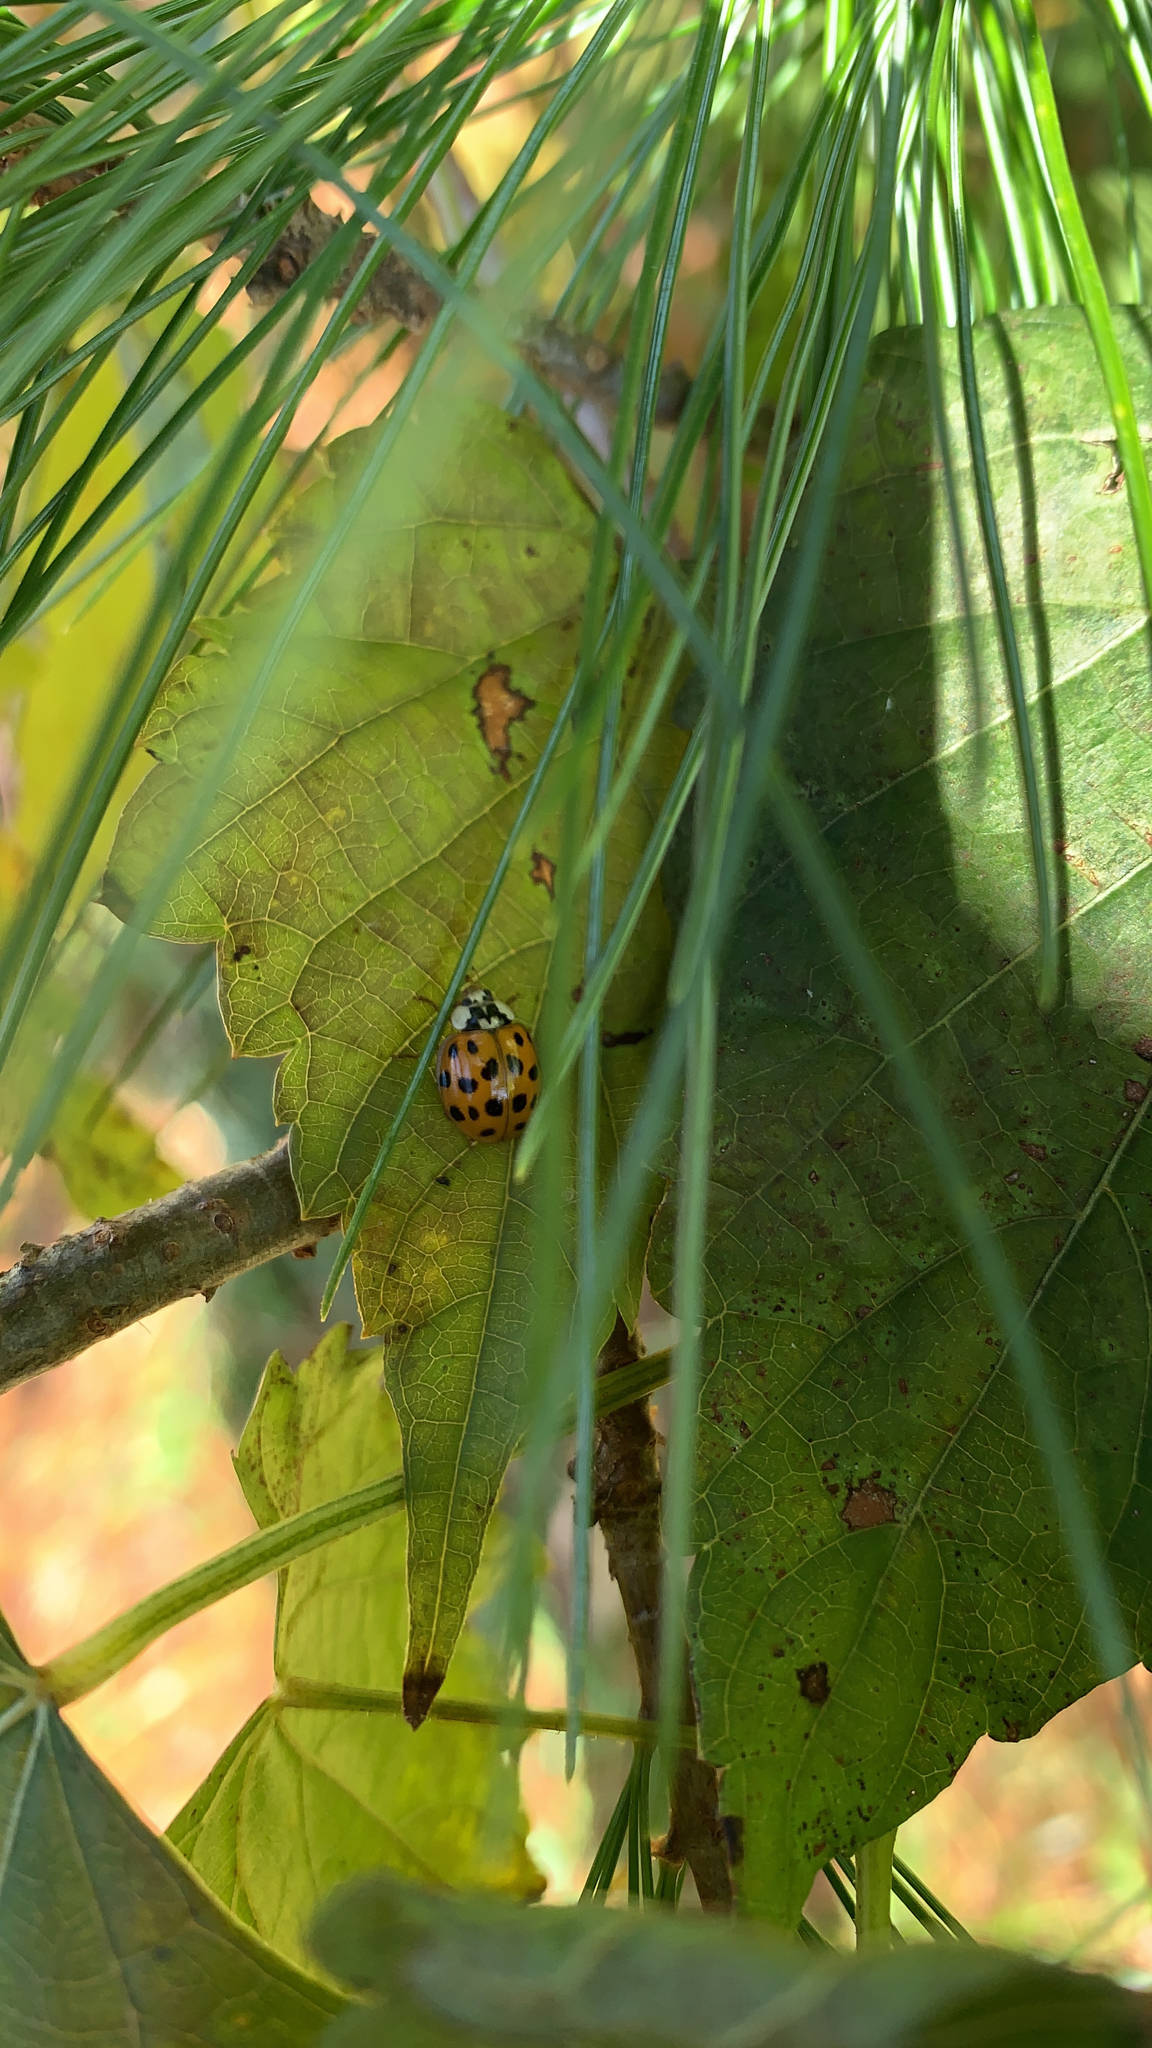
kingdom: Animalia
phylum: Arthropoda
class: Insecta
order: Coleoptera
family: Coccinellidae
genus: Harmonia
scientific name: Harmonia axyridis
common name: Harlequin ladybird
